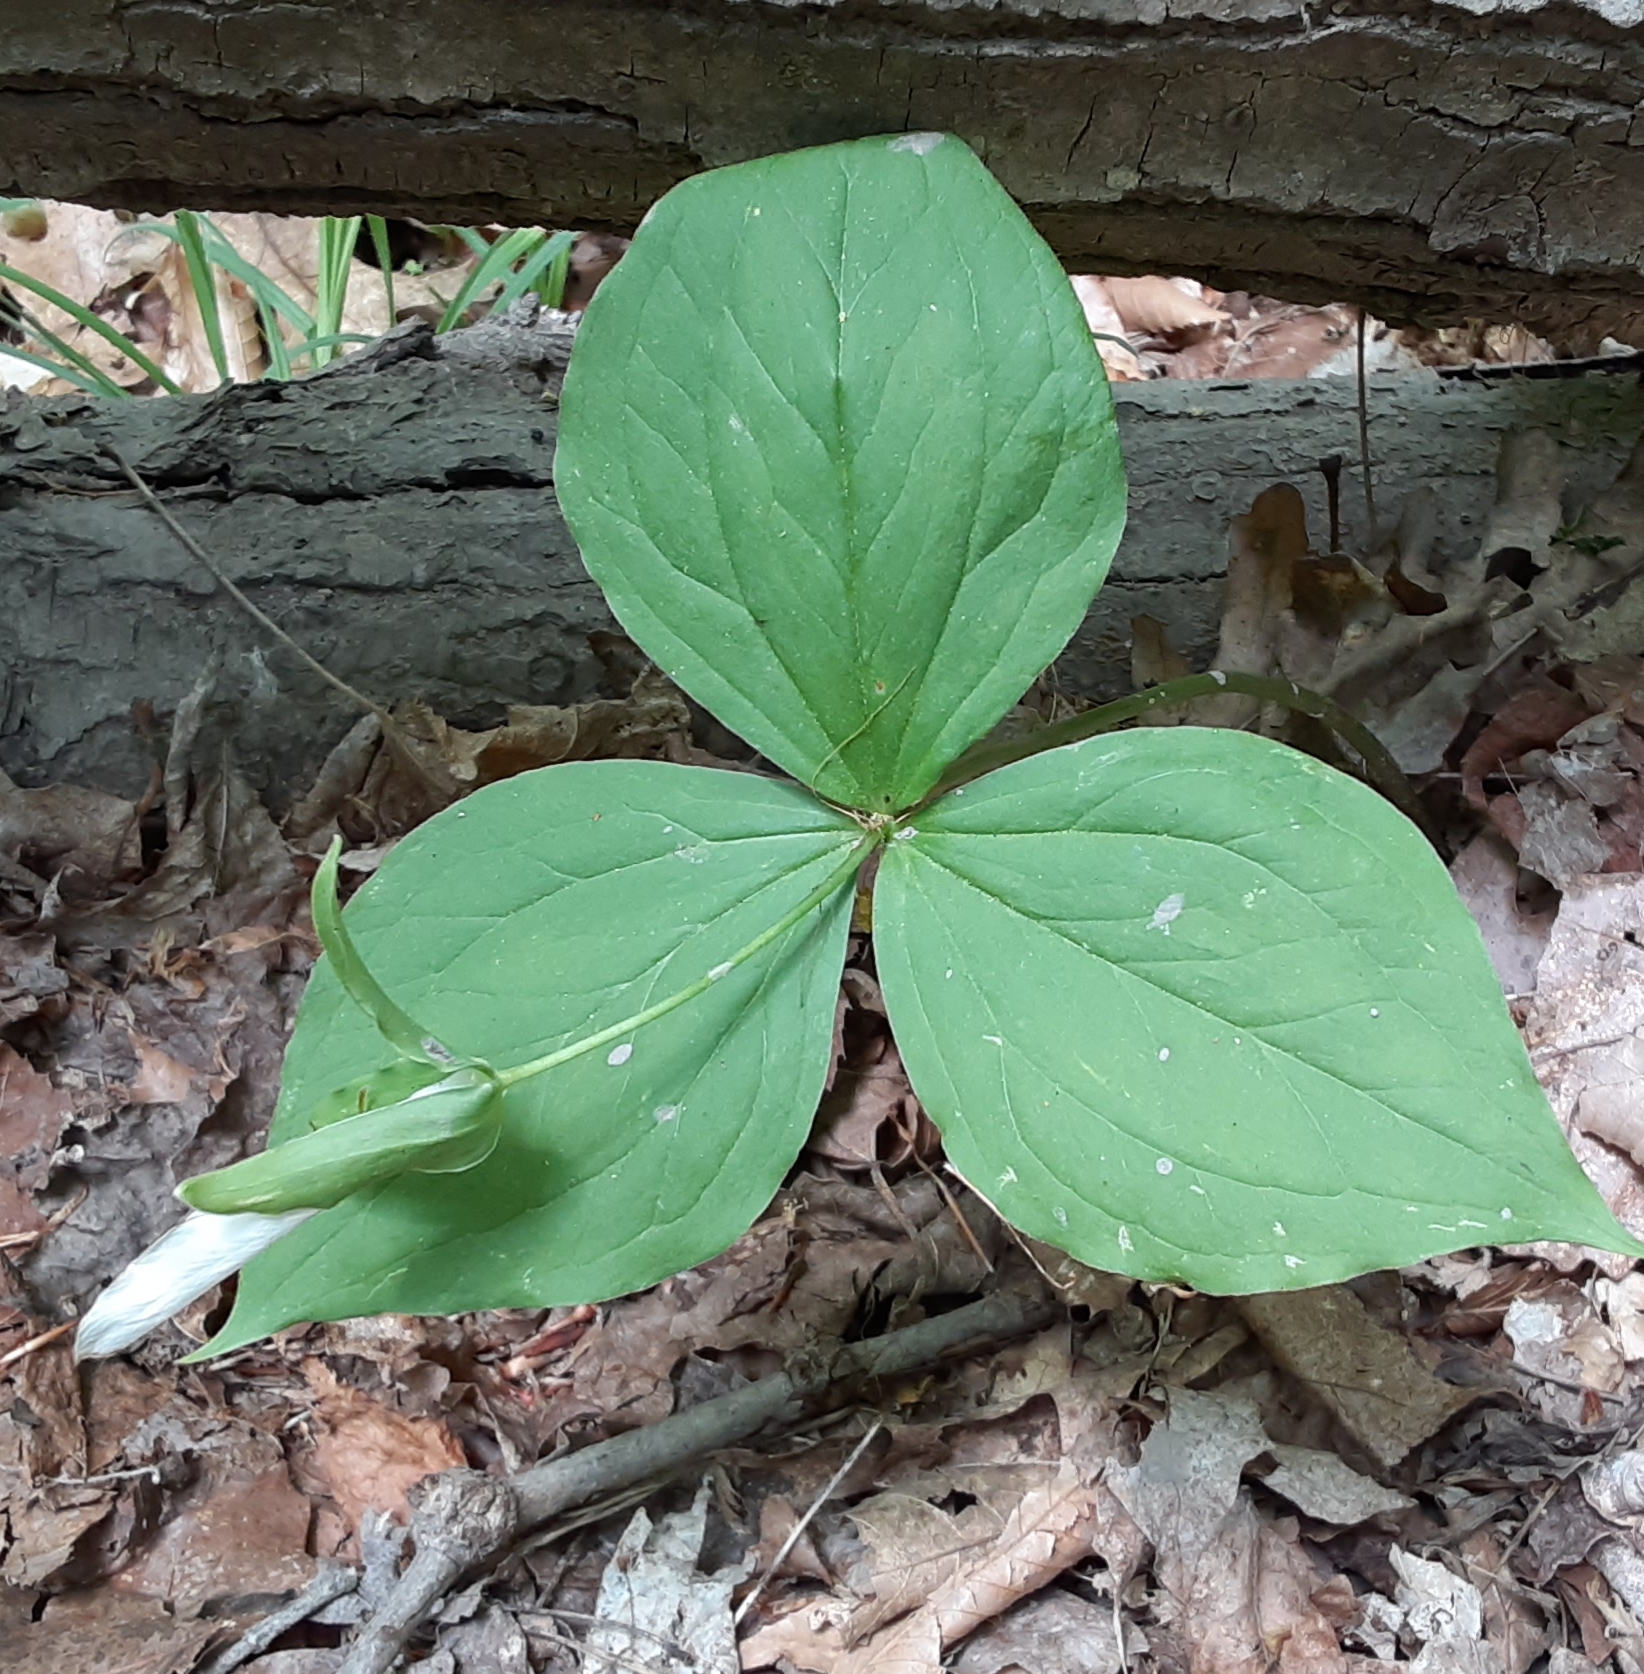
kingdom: Plantae
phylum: Tracheophyta
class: Liliopsida
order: Liliales
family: Melanthiaceae
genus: Trillium
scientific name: Trillium grandiflorum
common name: Great white trillium
